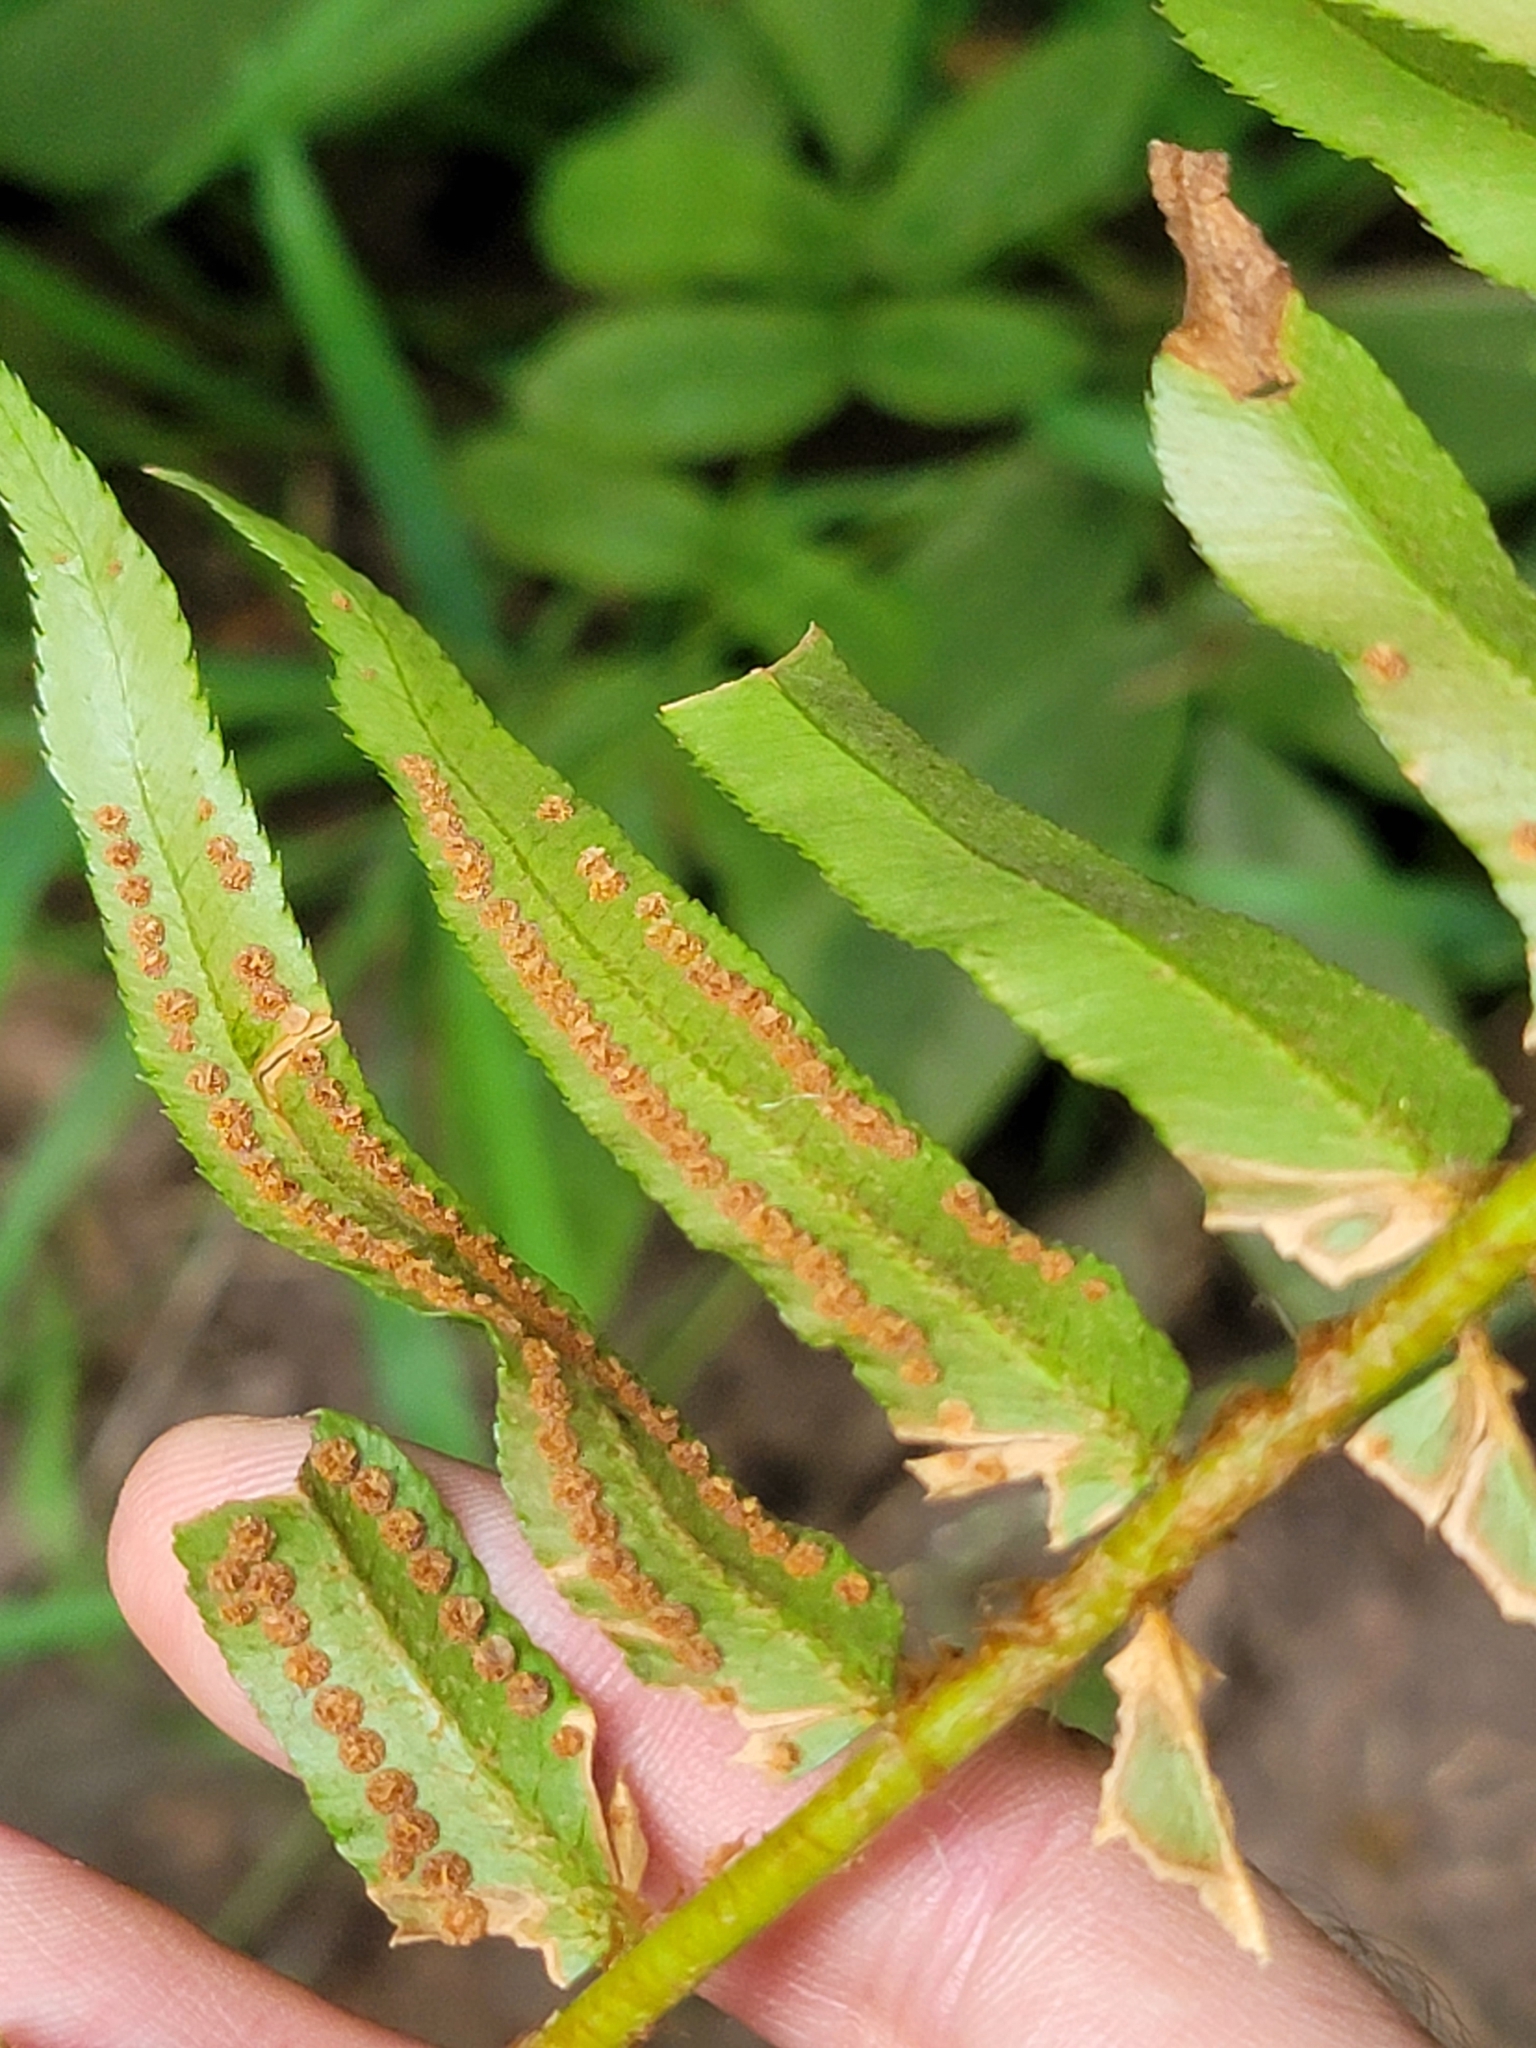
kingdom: Plantae
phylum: Tracheophyta
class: Polypodiopsida
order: Polypodiales
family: Dryopteridaceae
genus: Polystichum
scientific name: Polystichum munitum
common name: Western sword-fern
